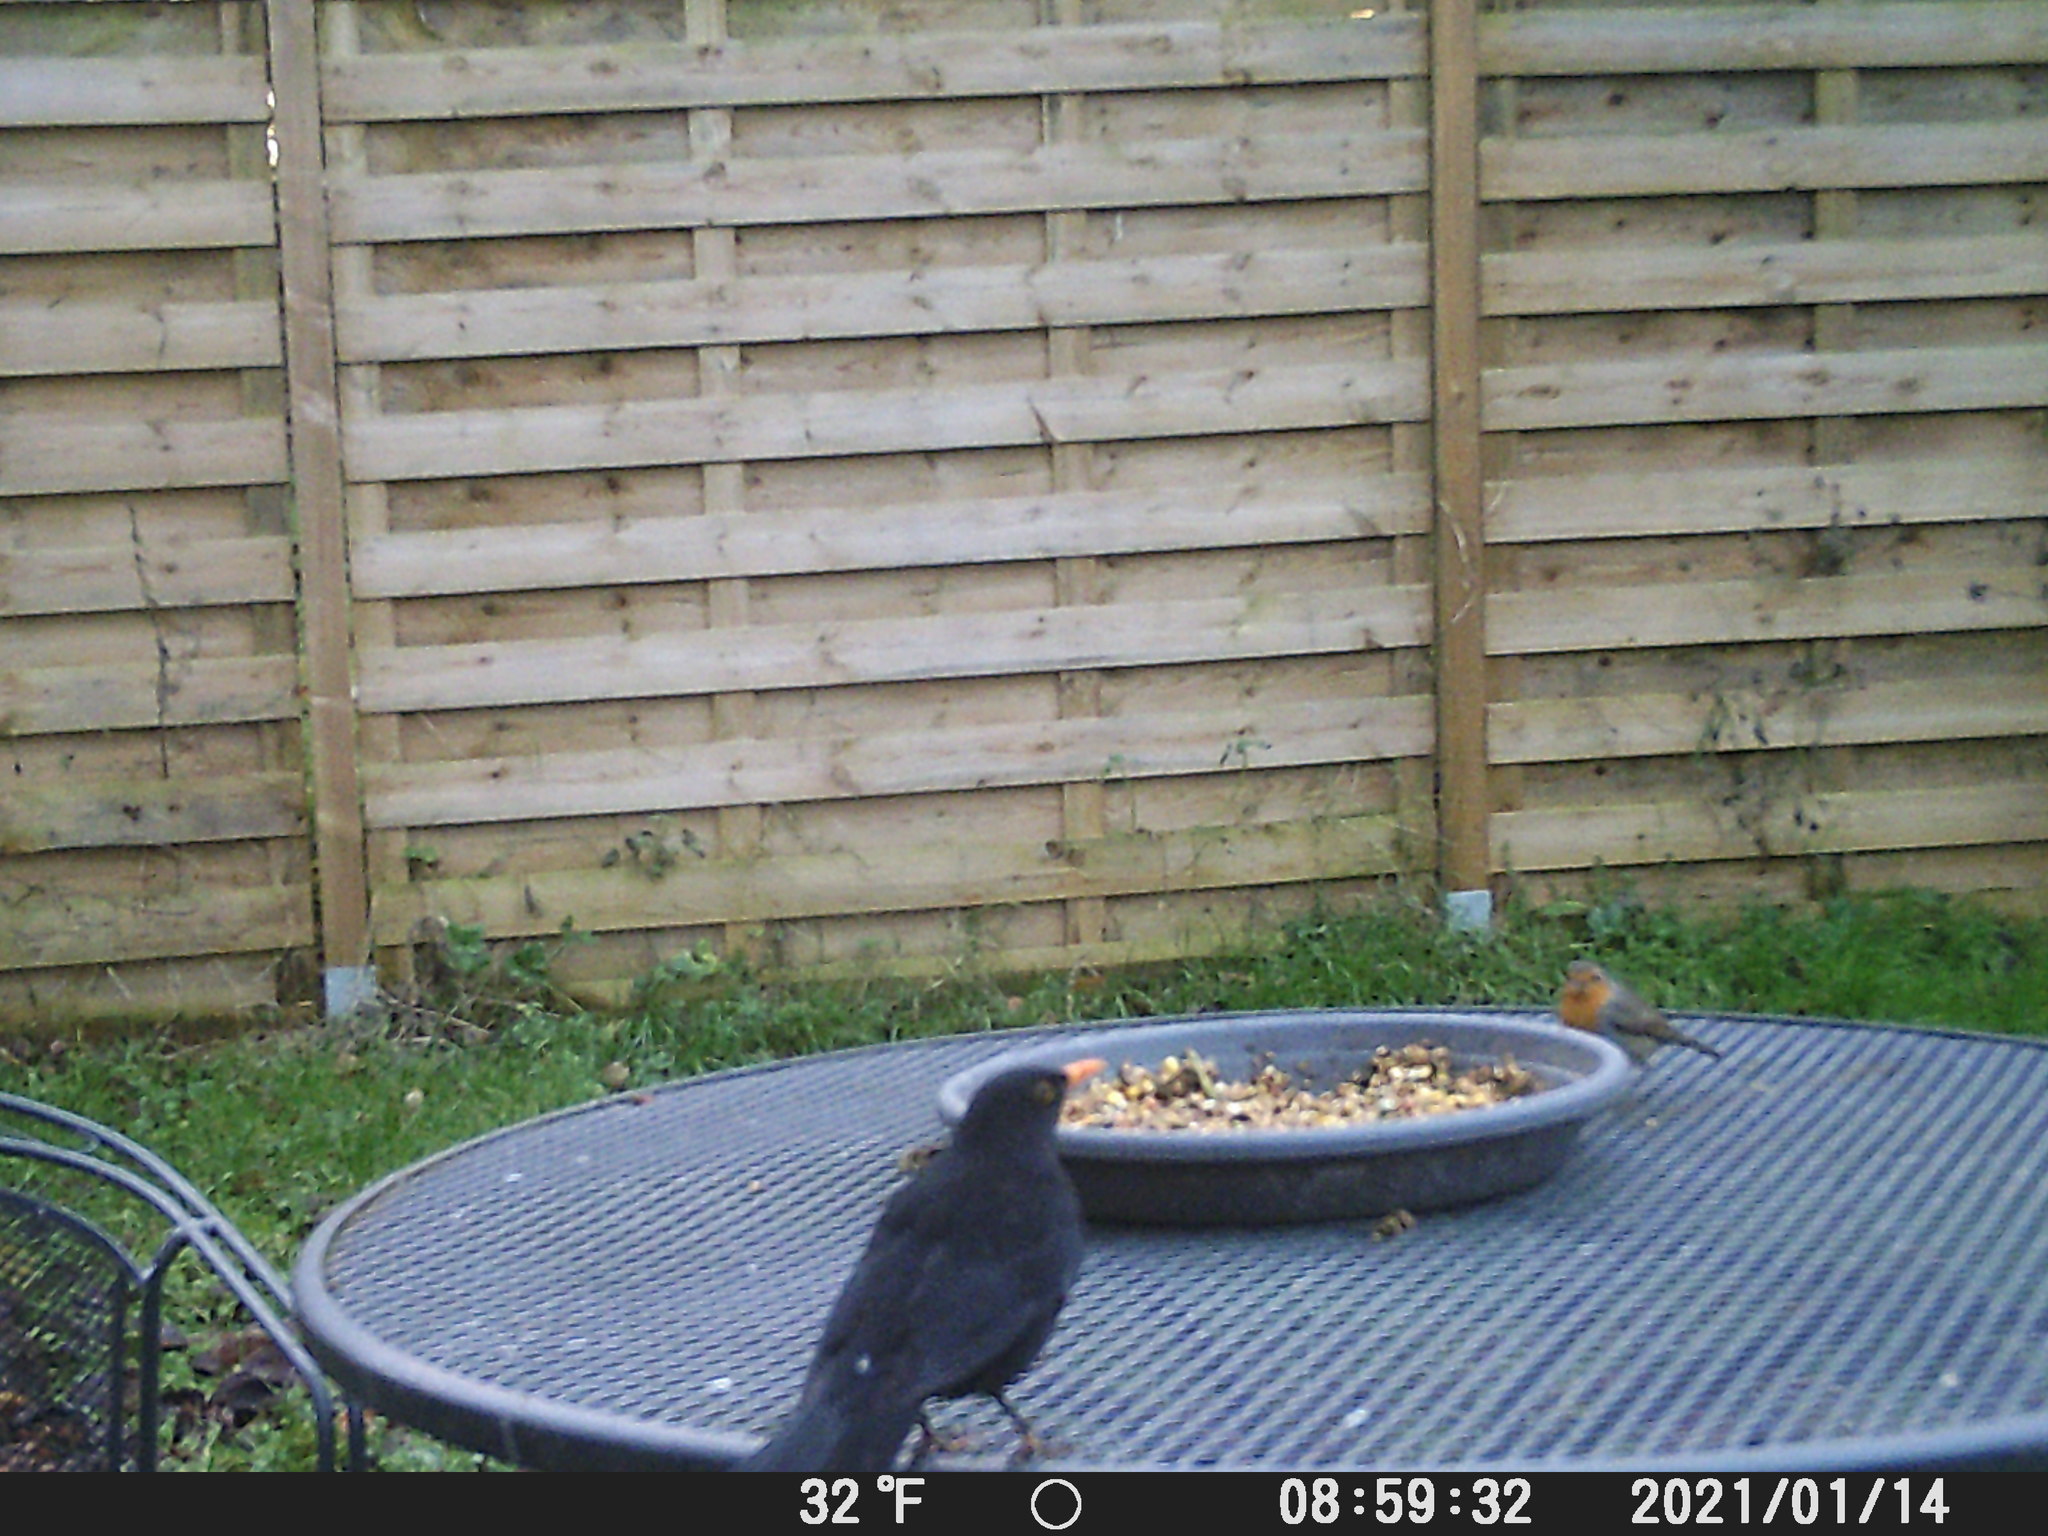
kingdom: Animalia
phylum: Chordata
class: Aves
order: Passeriformes
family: Muscicapidae
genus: Erithacus
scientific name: Erithacus rubecula
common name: European robin
